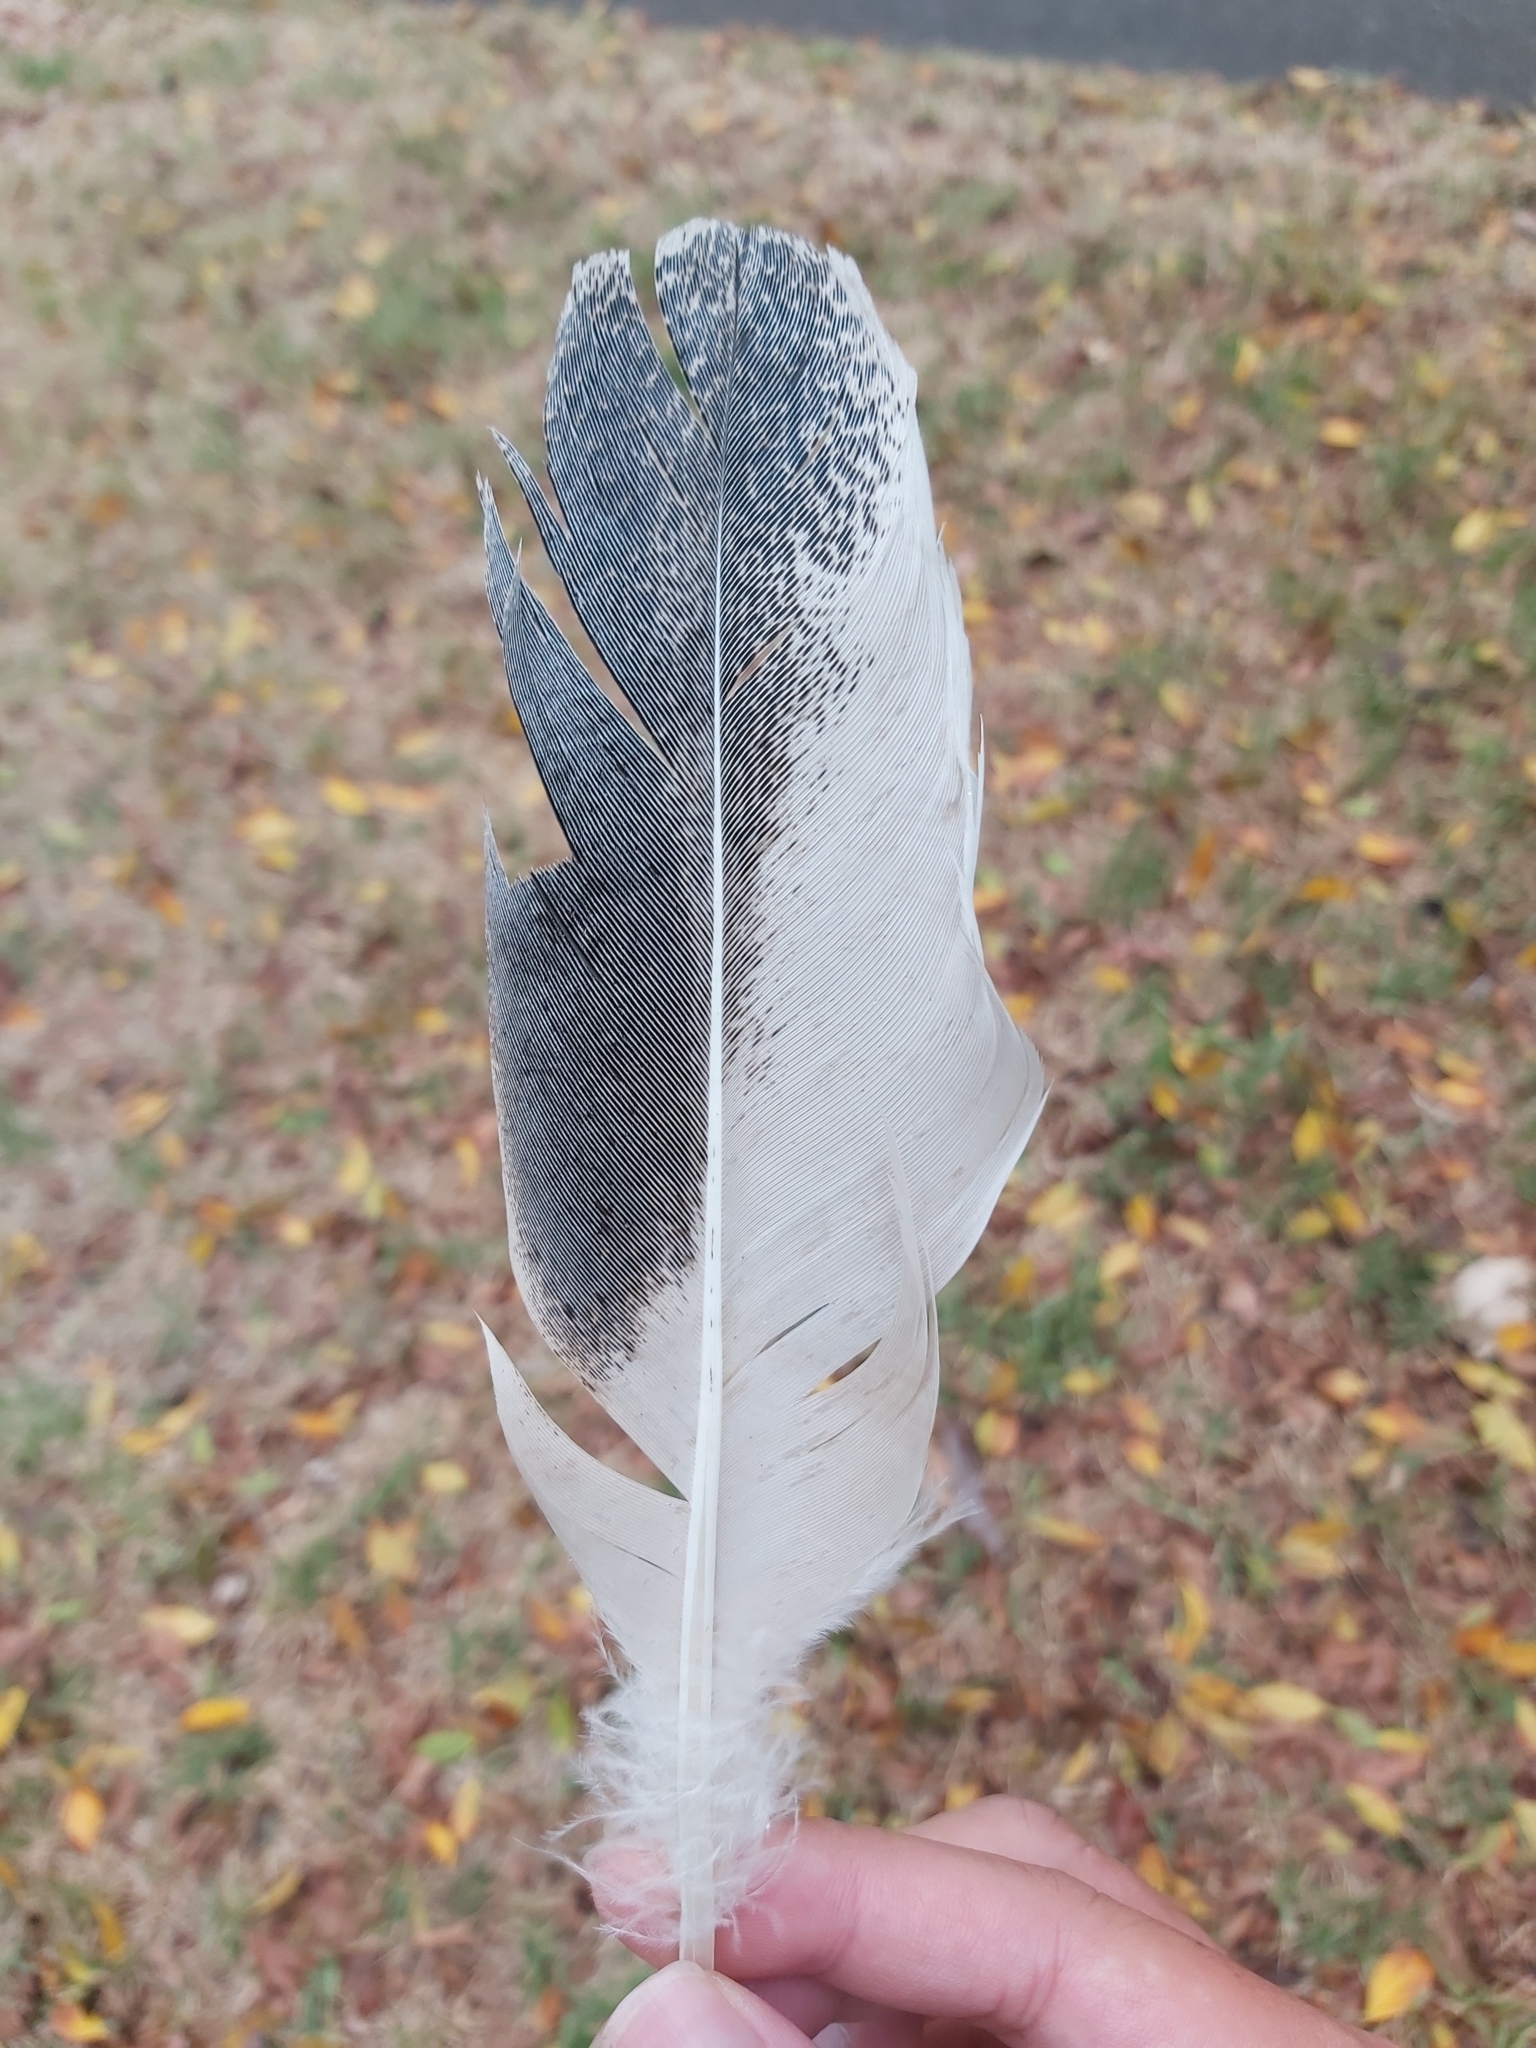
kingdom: Animalia
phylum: Chordata
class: Aves
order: Pelecaniformes
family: Threskiornithidae
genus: Threskiornis
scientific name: Threskiornis molucca
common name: Australian white ibis
